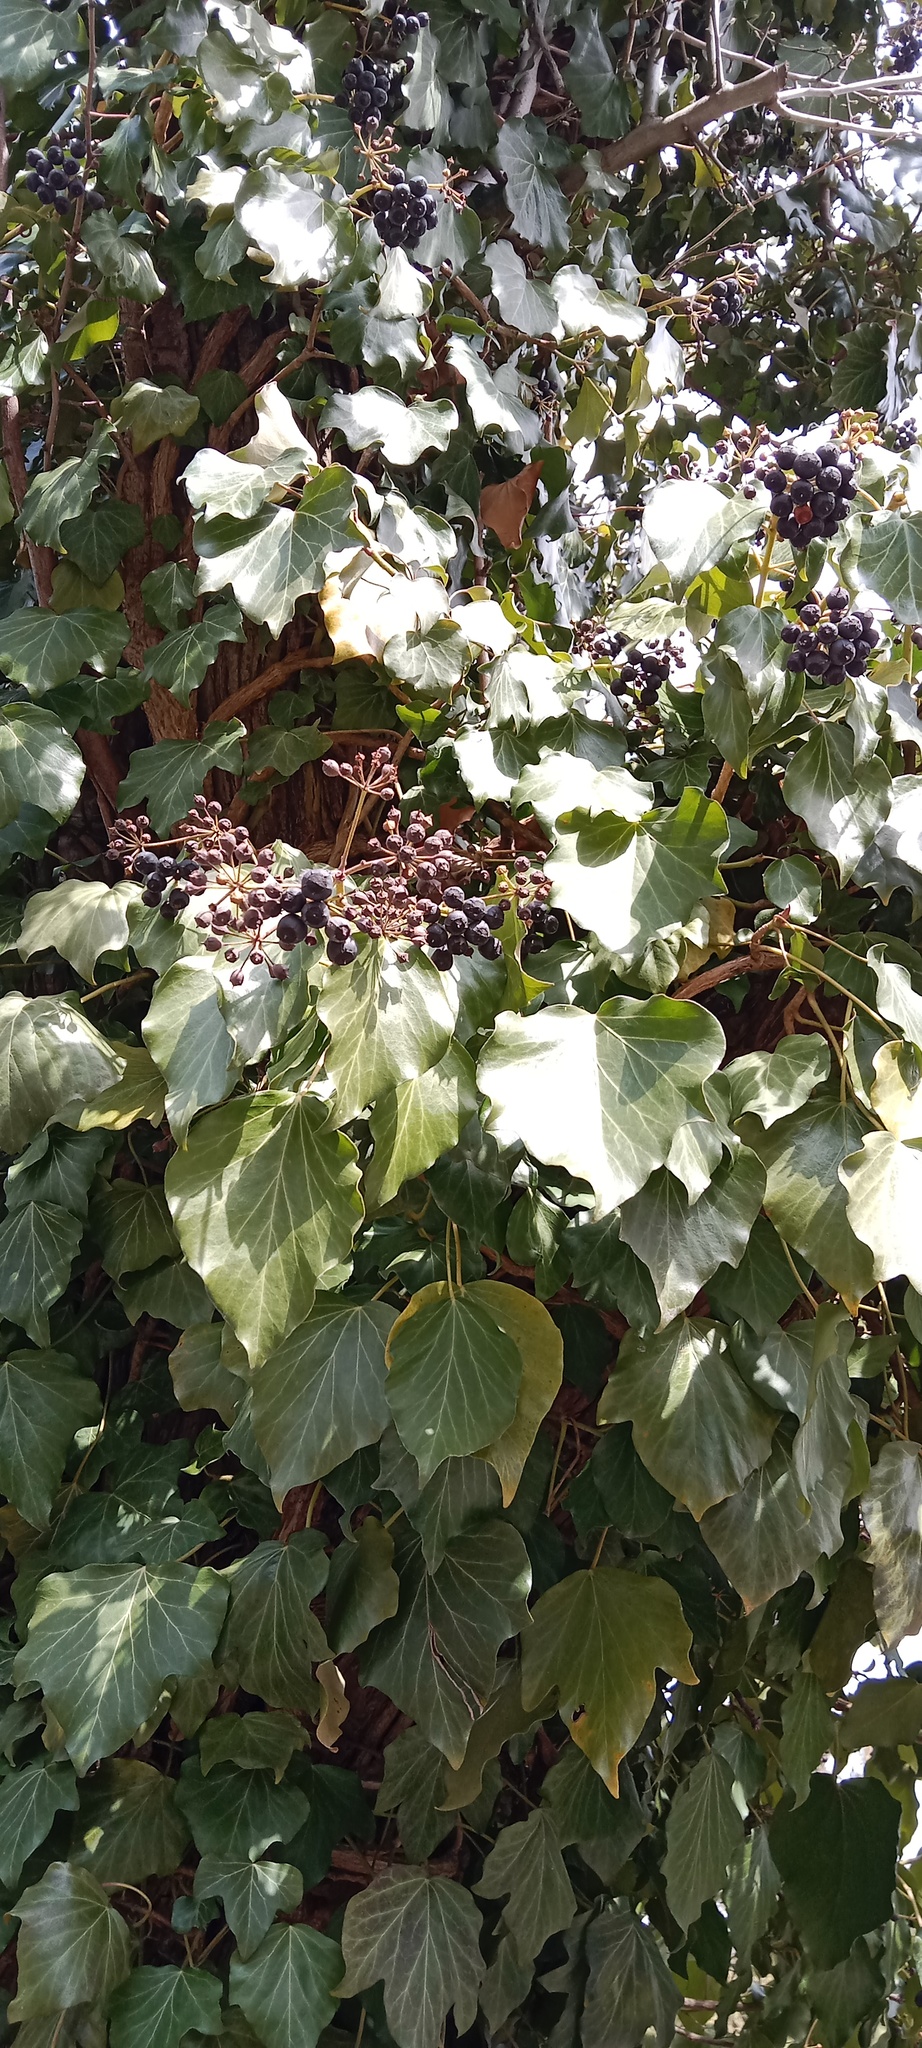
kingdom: Plantae
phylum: Tracheophyta
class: Magnoliopsida
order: Apiales
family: Araliaceae
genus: Hedera
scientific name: Hedera helix
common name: Ivy
